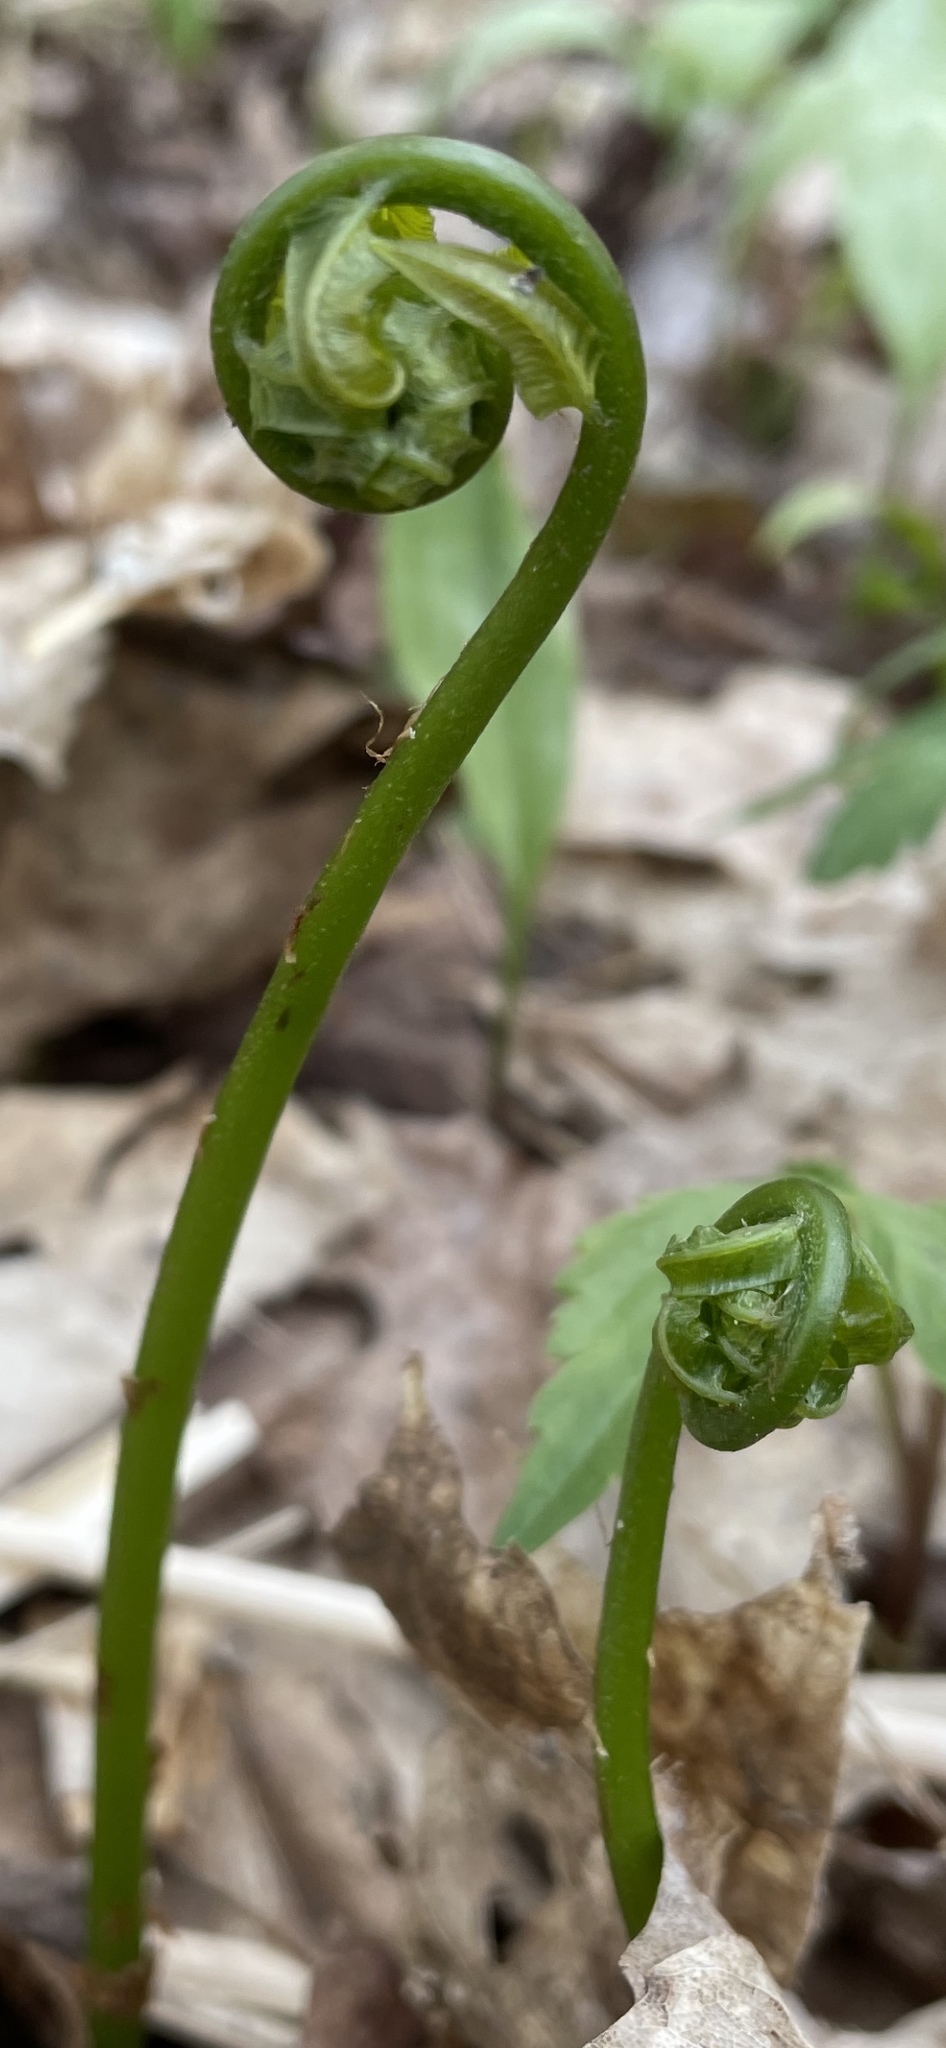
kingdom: Plantae
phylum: Tracheophyta
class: Polypodiopsida
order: Polypodiales
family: Diplaziopsidaceae
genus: Homalosorus
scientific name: Homalosorus pycnocarpos
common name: Glade fern
